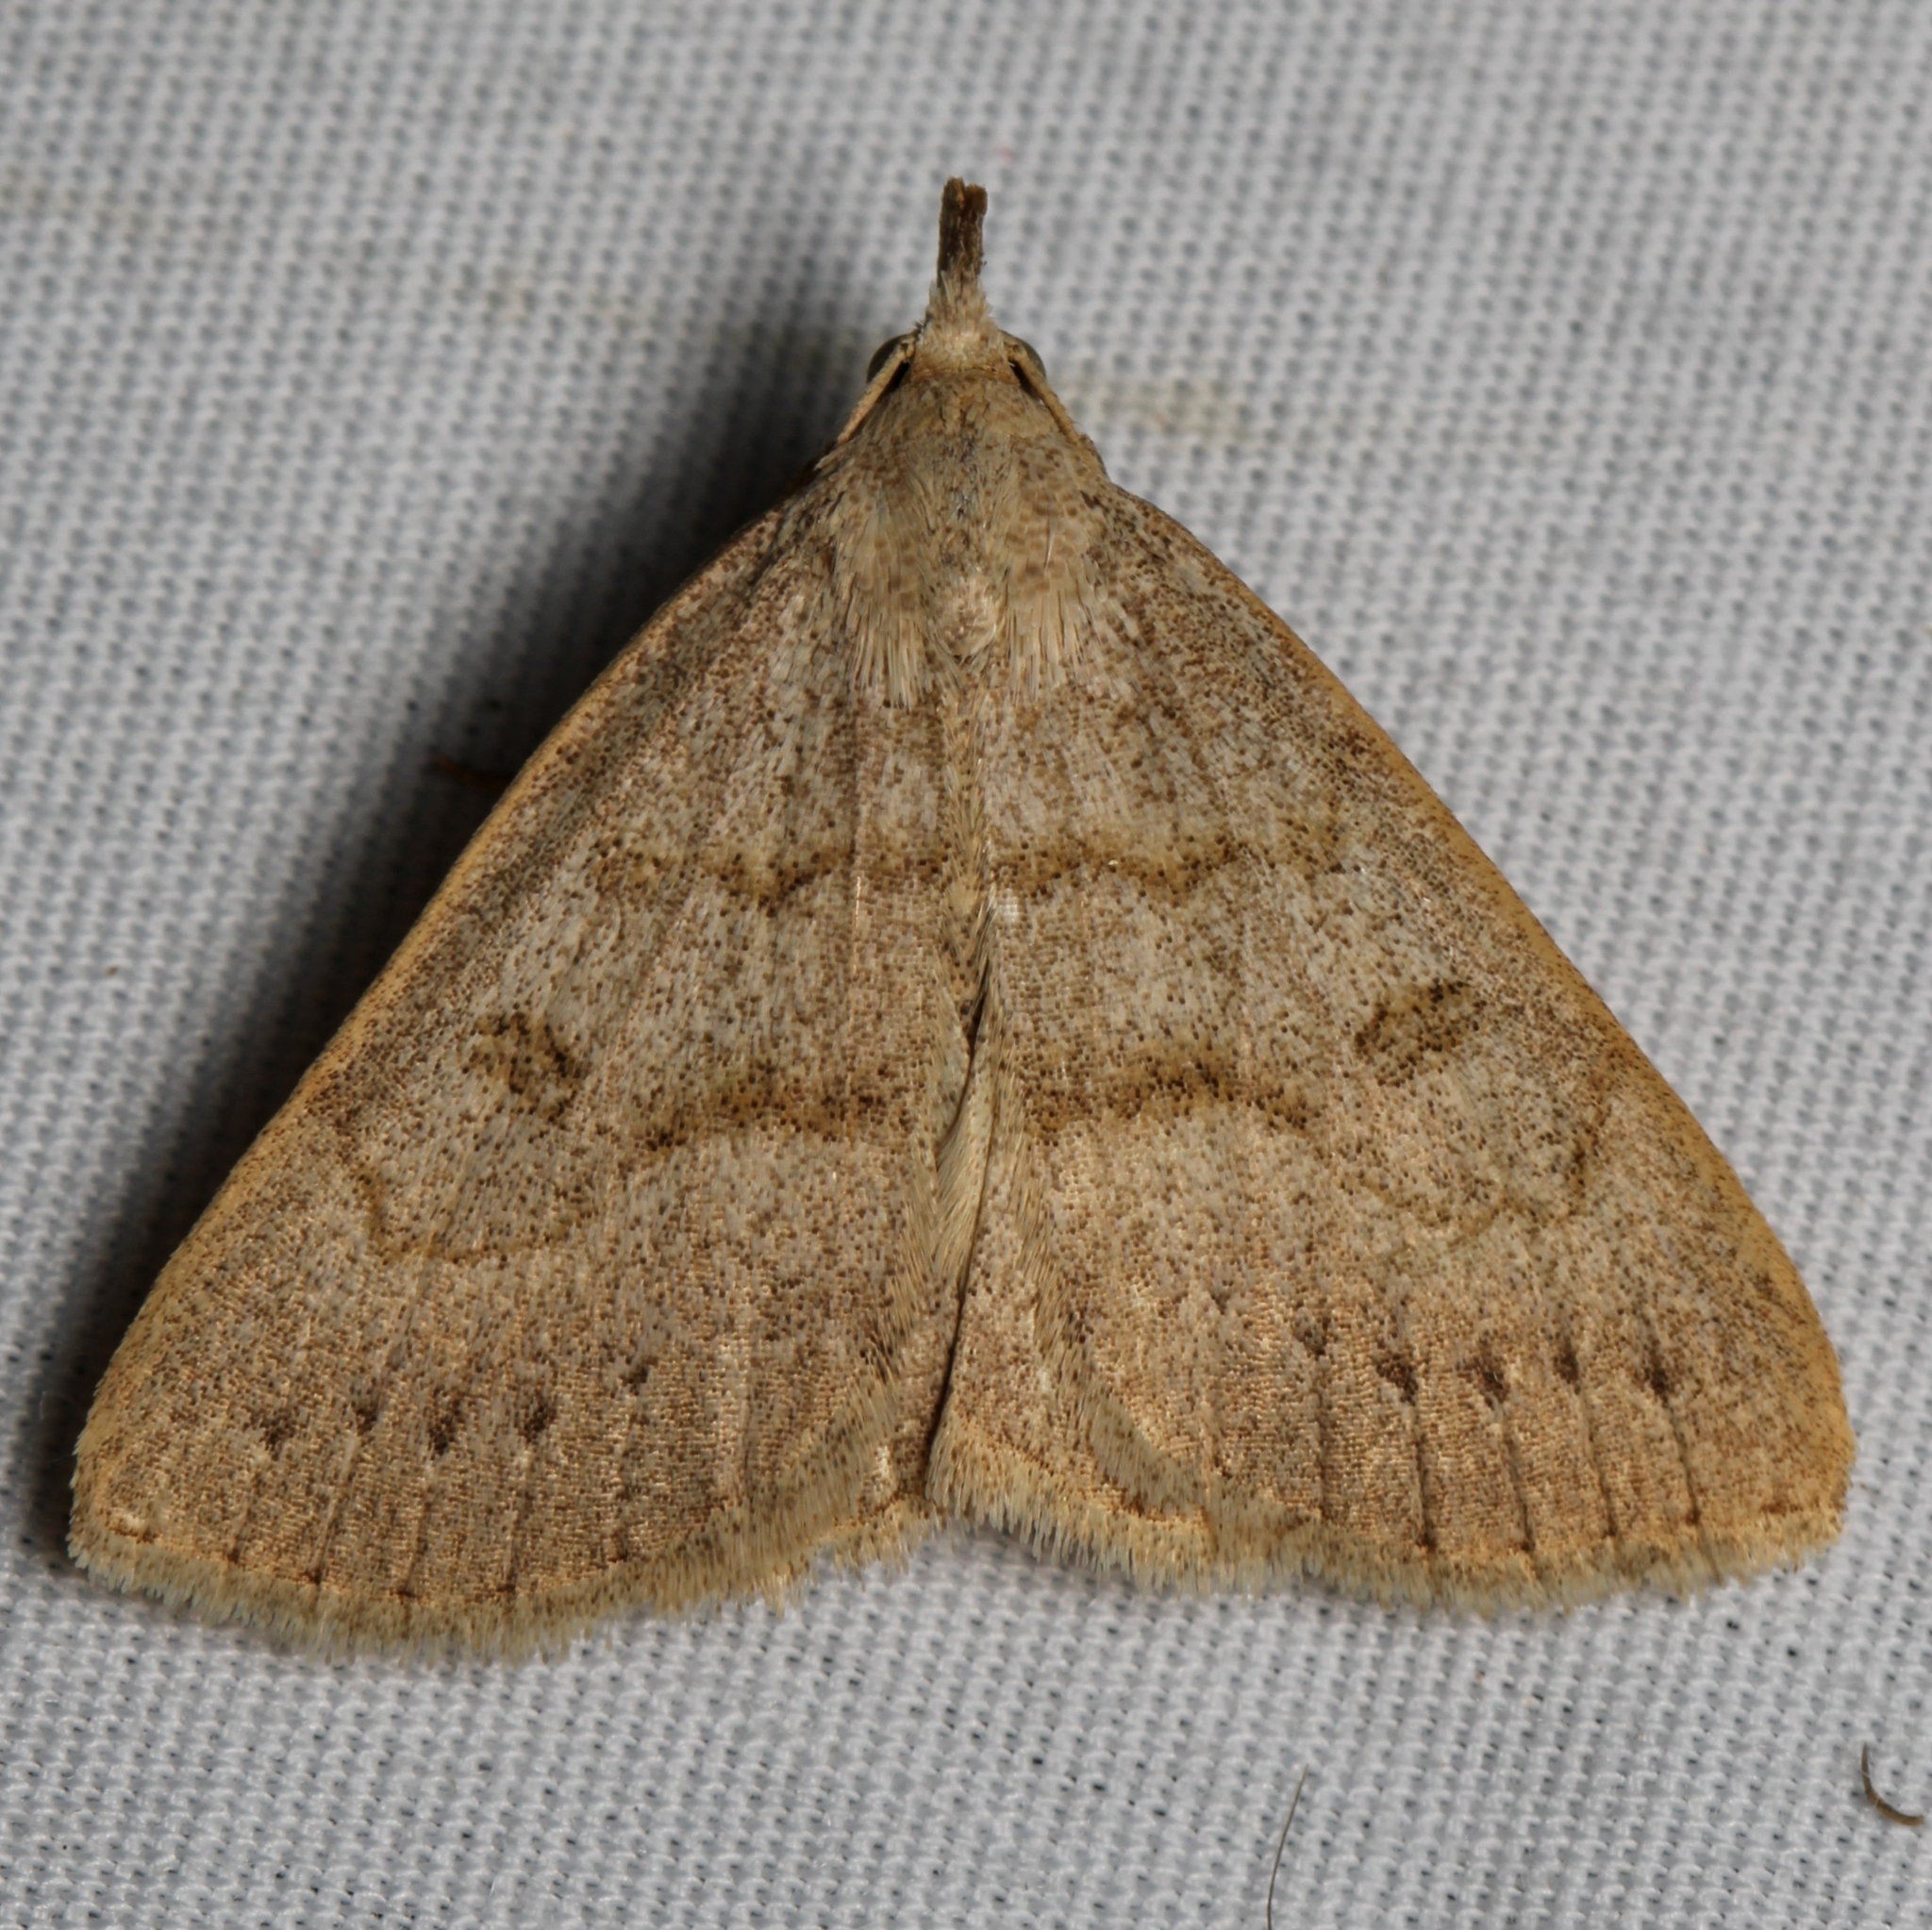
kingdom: Animalia
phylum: Arthropoda
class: Insecta
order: Lepidoptera
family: Erebidae
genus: Macrochilo
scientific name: Macrochilo morbidalis
